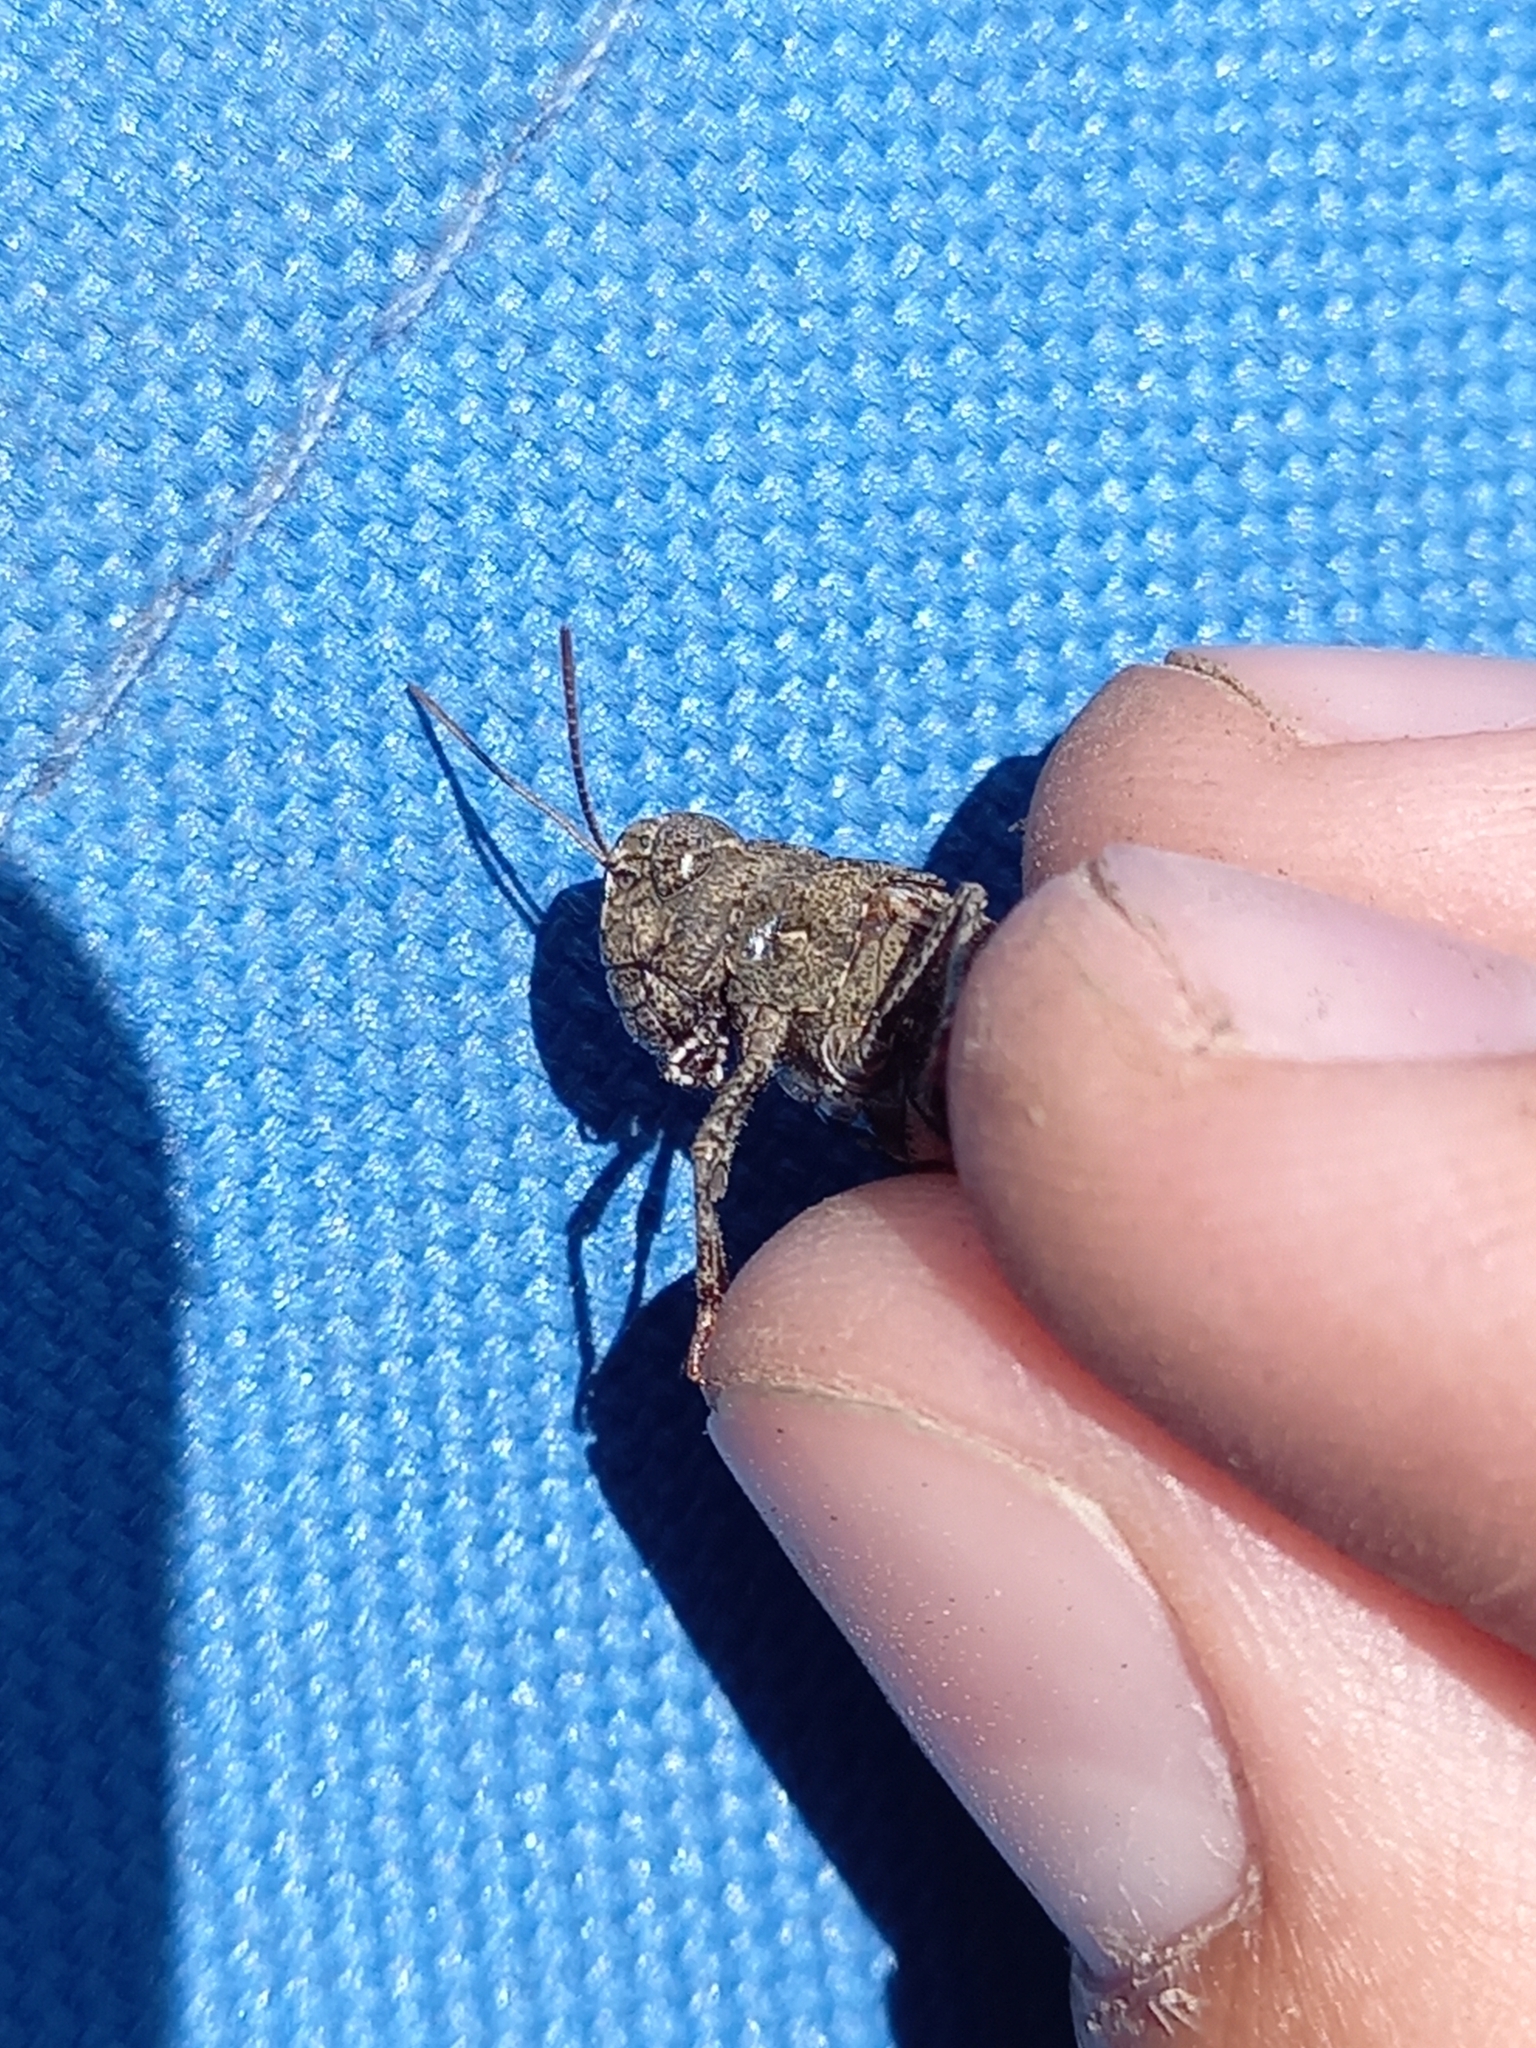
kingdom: Animalia
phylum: Arthropoda
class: Insecta
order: Orthoptera
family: Acrididae
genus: Celes
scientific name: Celes variabilis
